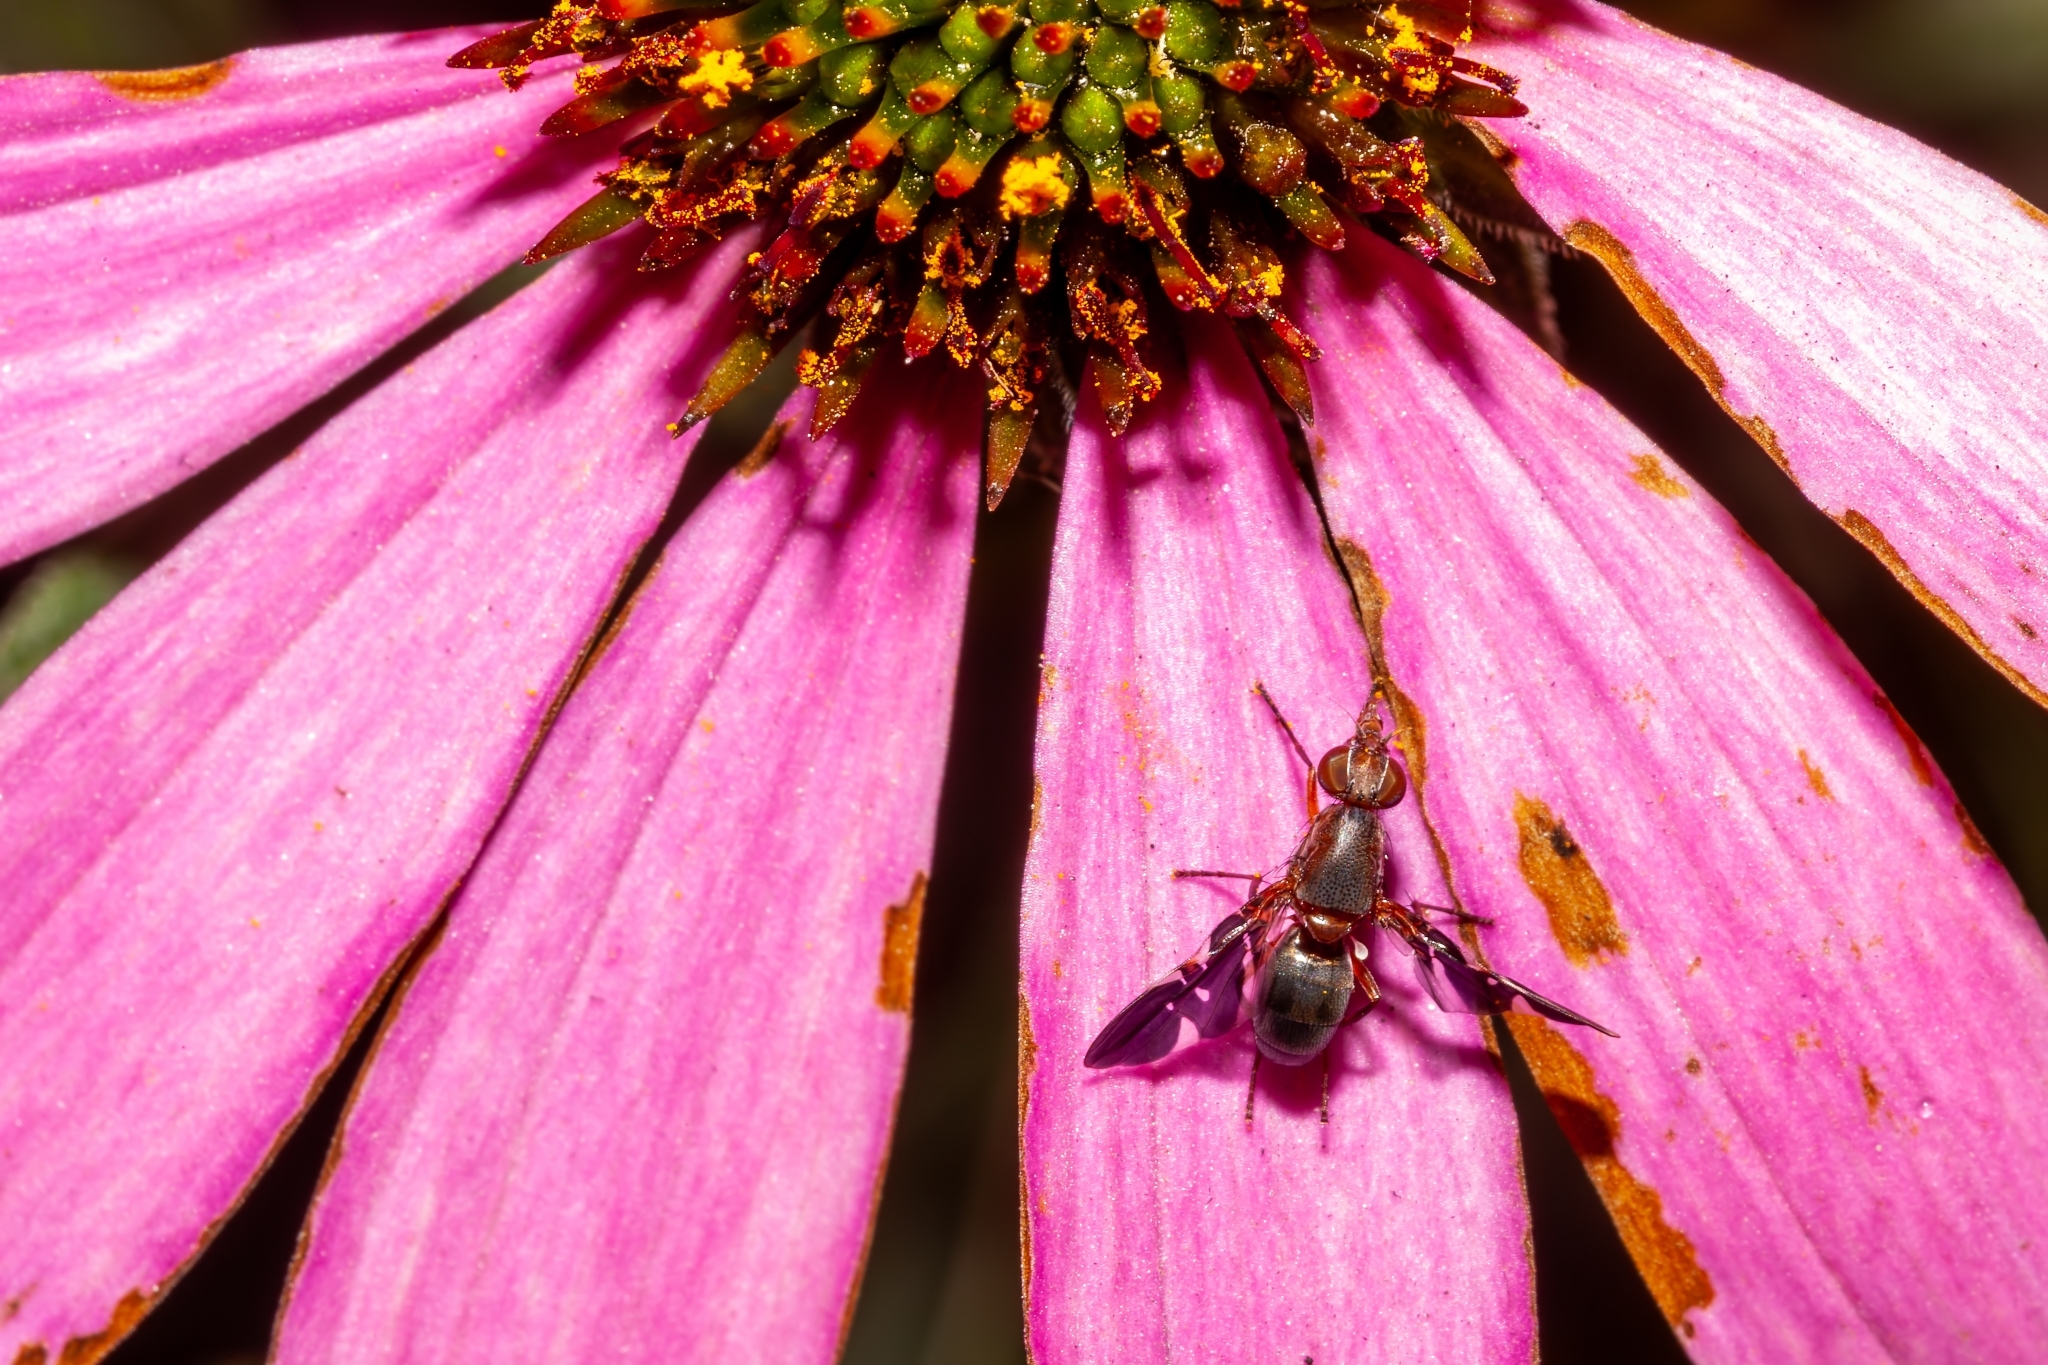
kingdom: Animalia
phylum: Arthropoda
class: Insecta
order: Diptera
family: Ulidiidae
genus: Delphinia
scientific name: Delphinia picta
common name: Common picture-winged fly
